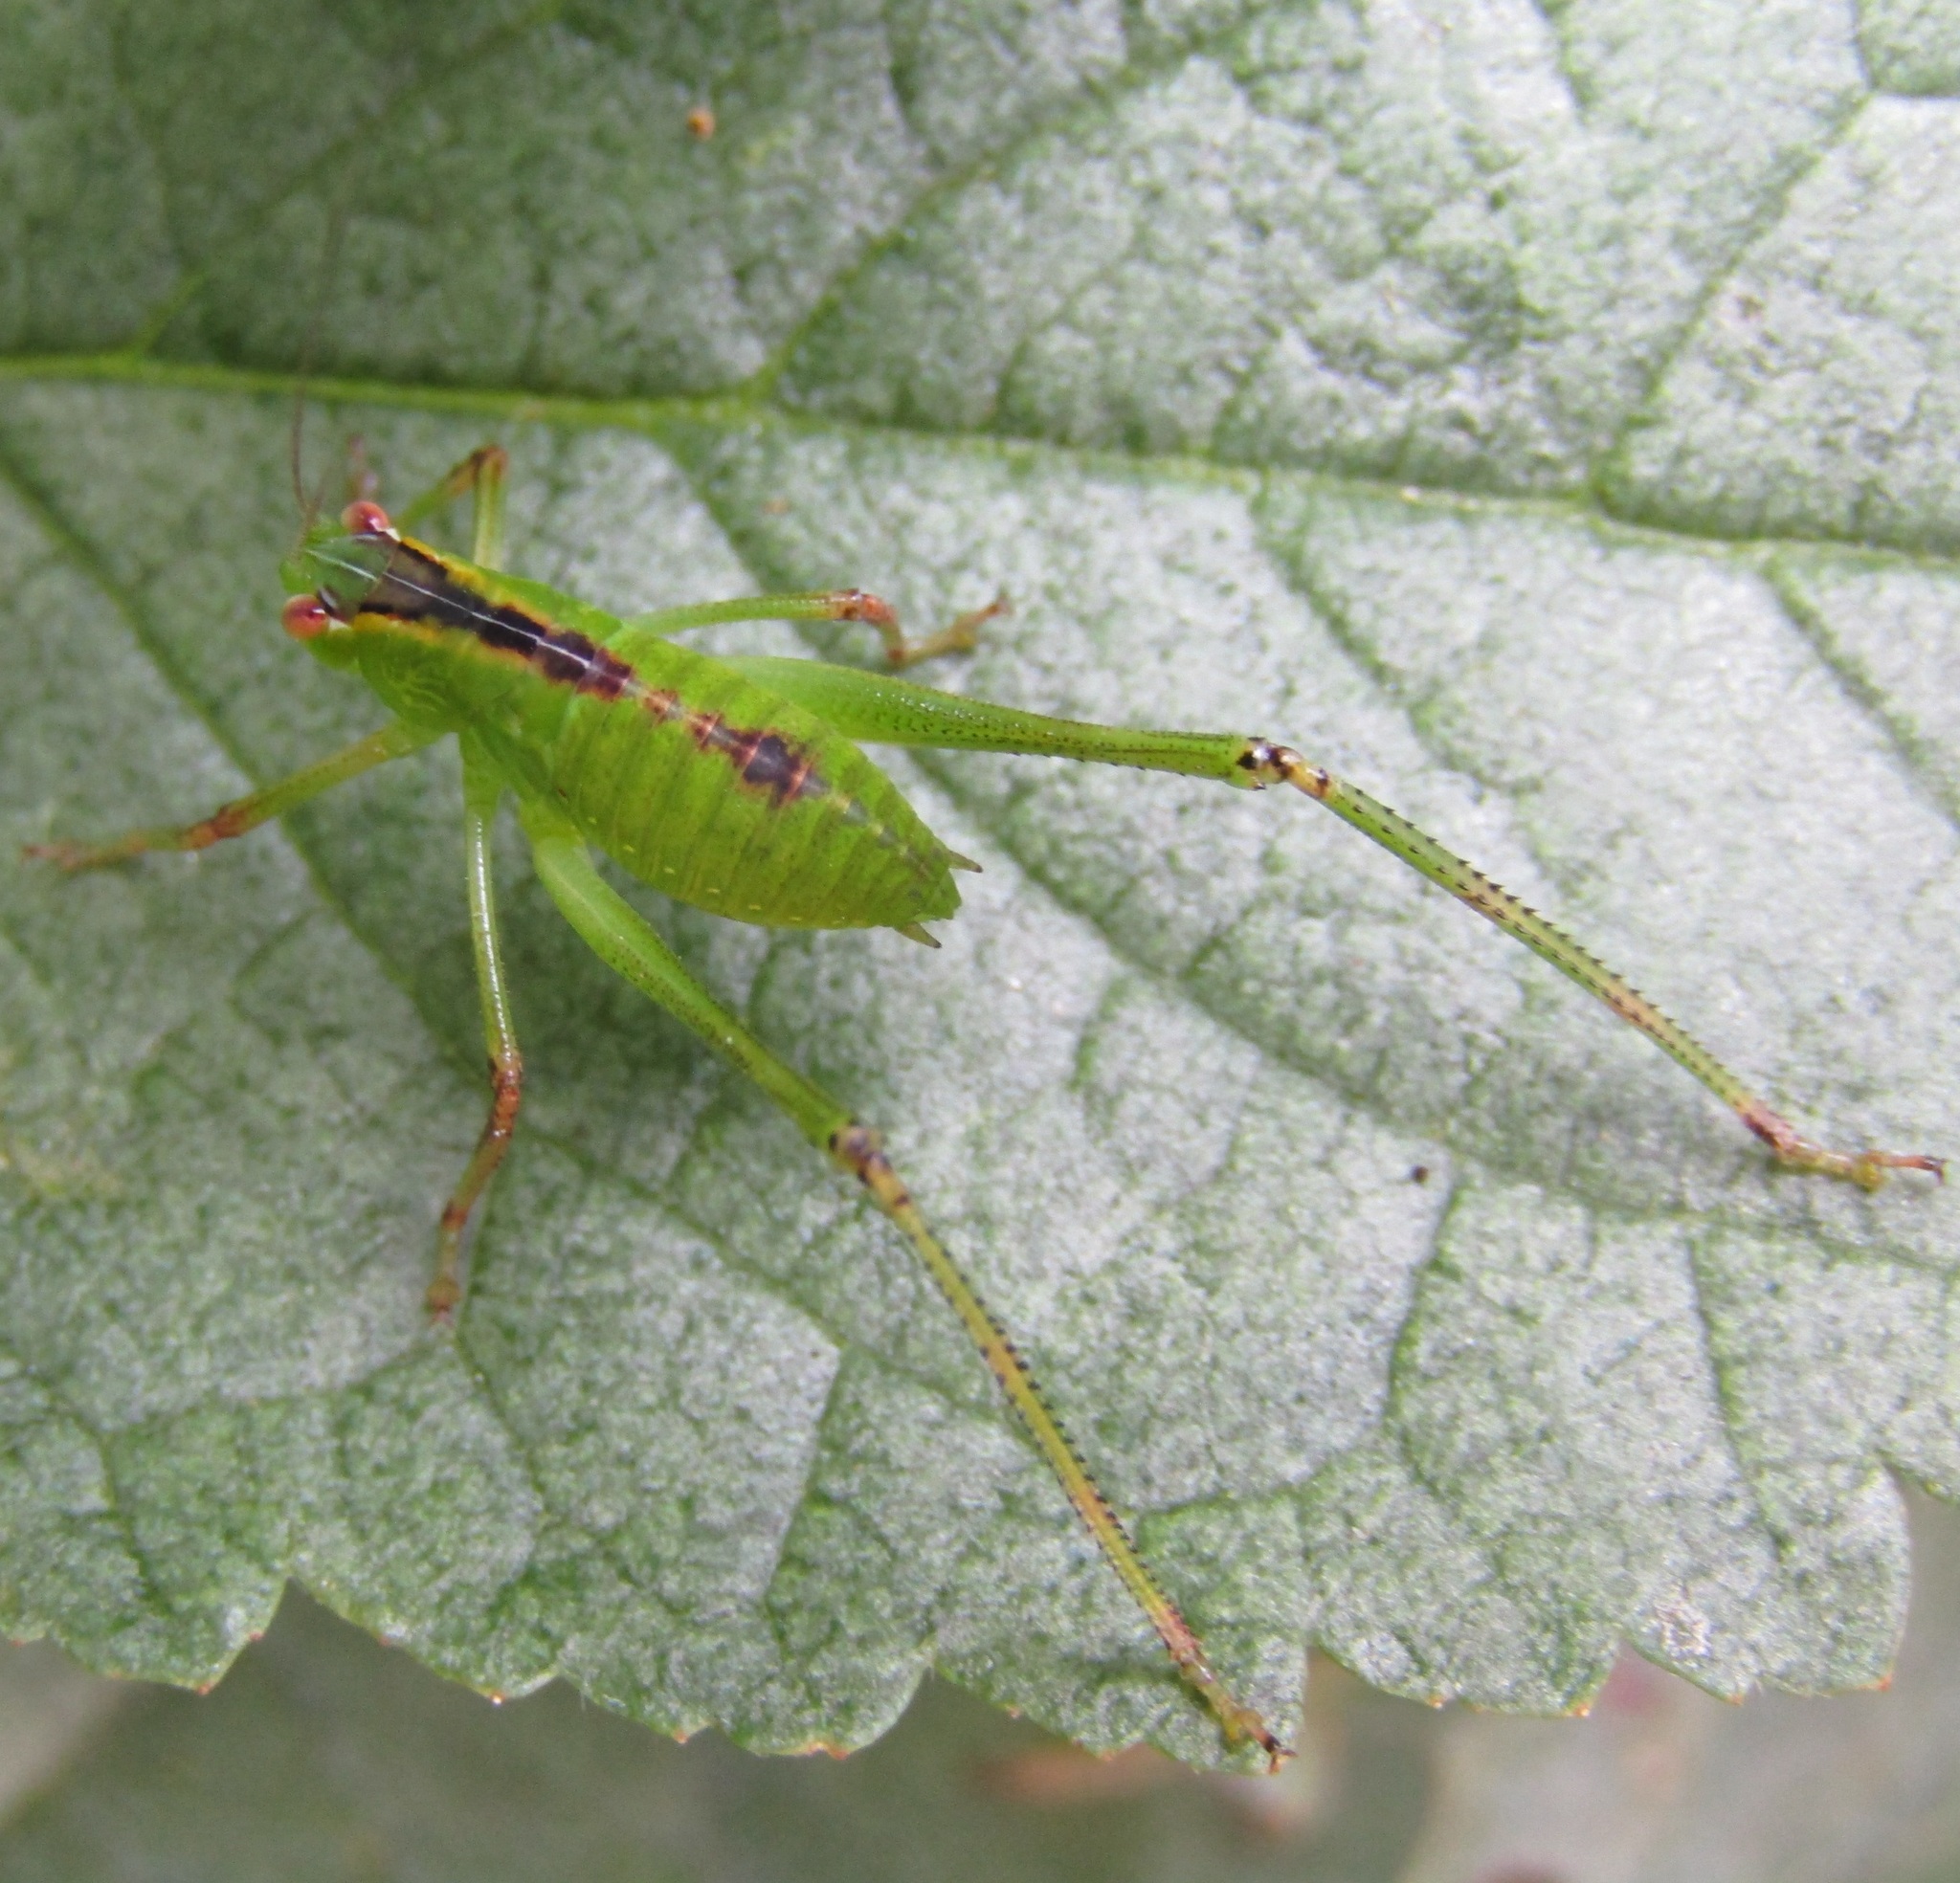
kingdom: Animalia
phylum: Arthropoda
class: Insecta
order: Orthoptera
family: Tettigoniidae
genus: Caedicia
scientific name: Caedicia simplex
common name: Common garden katydid
